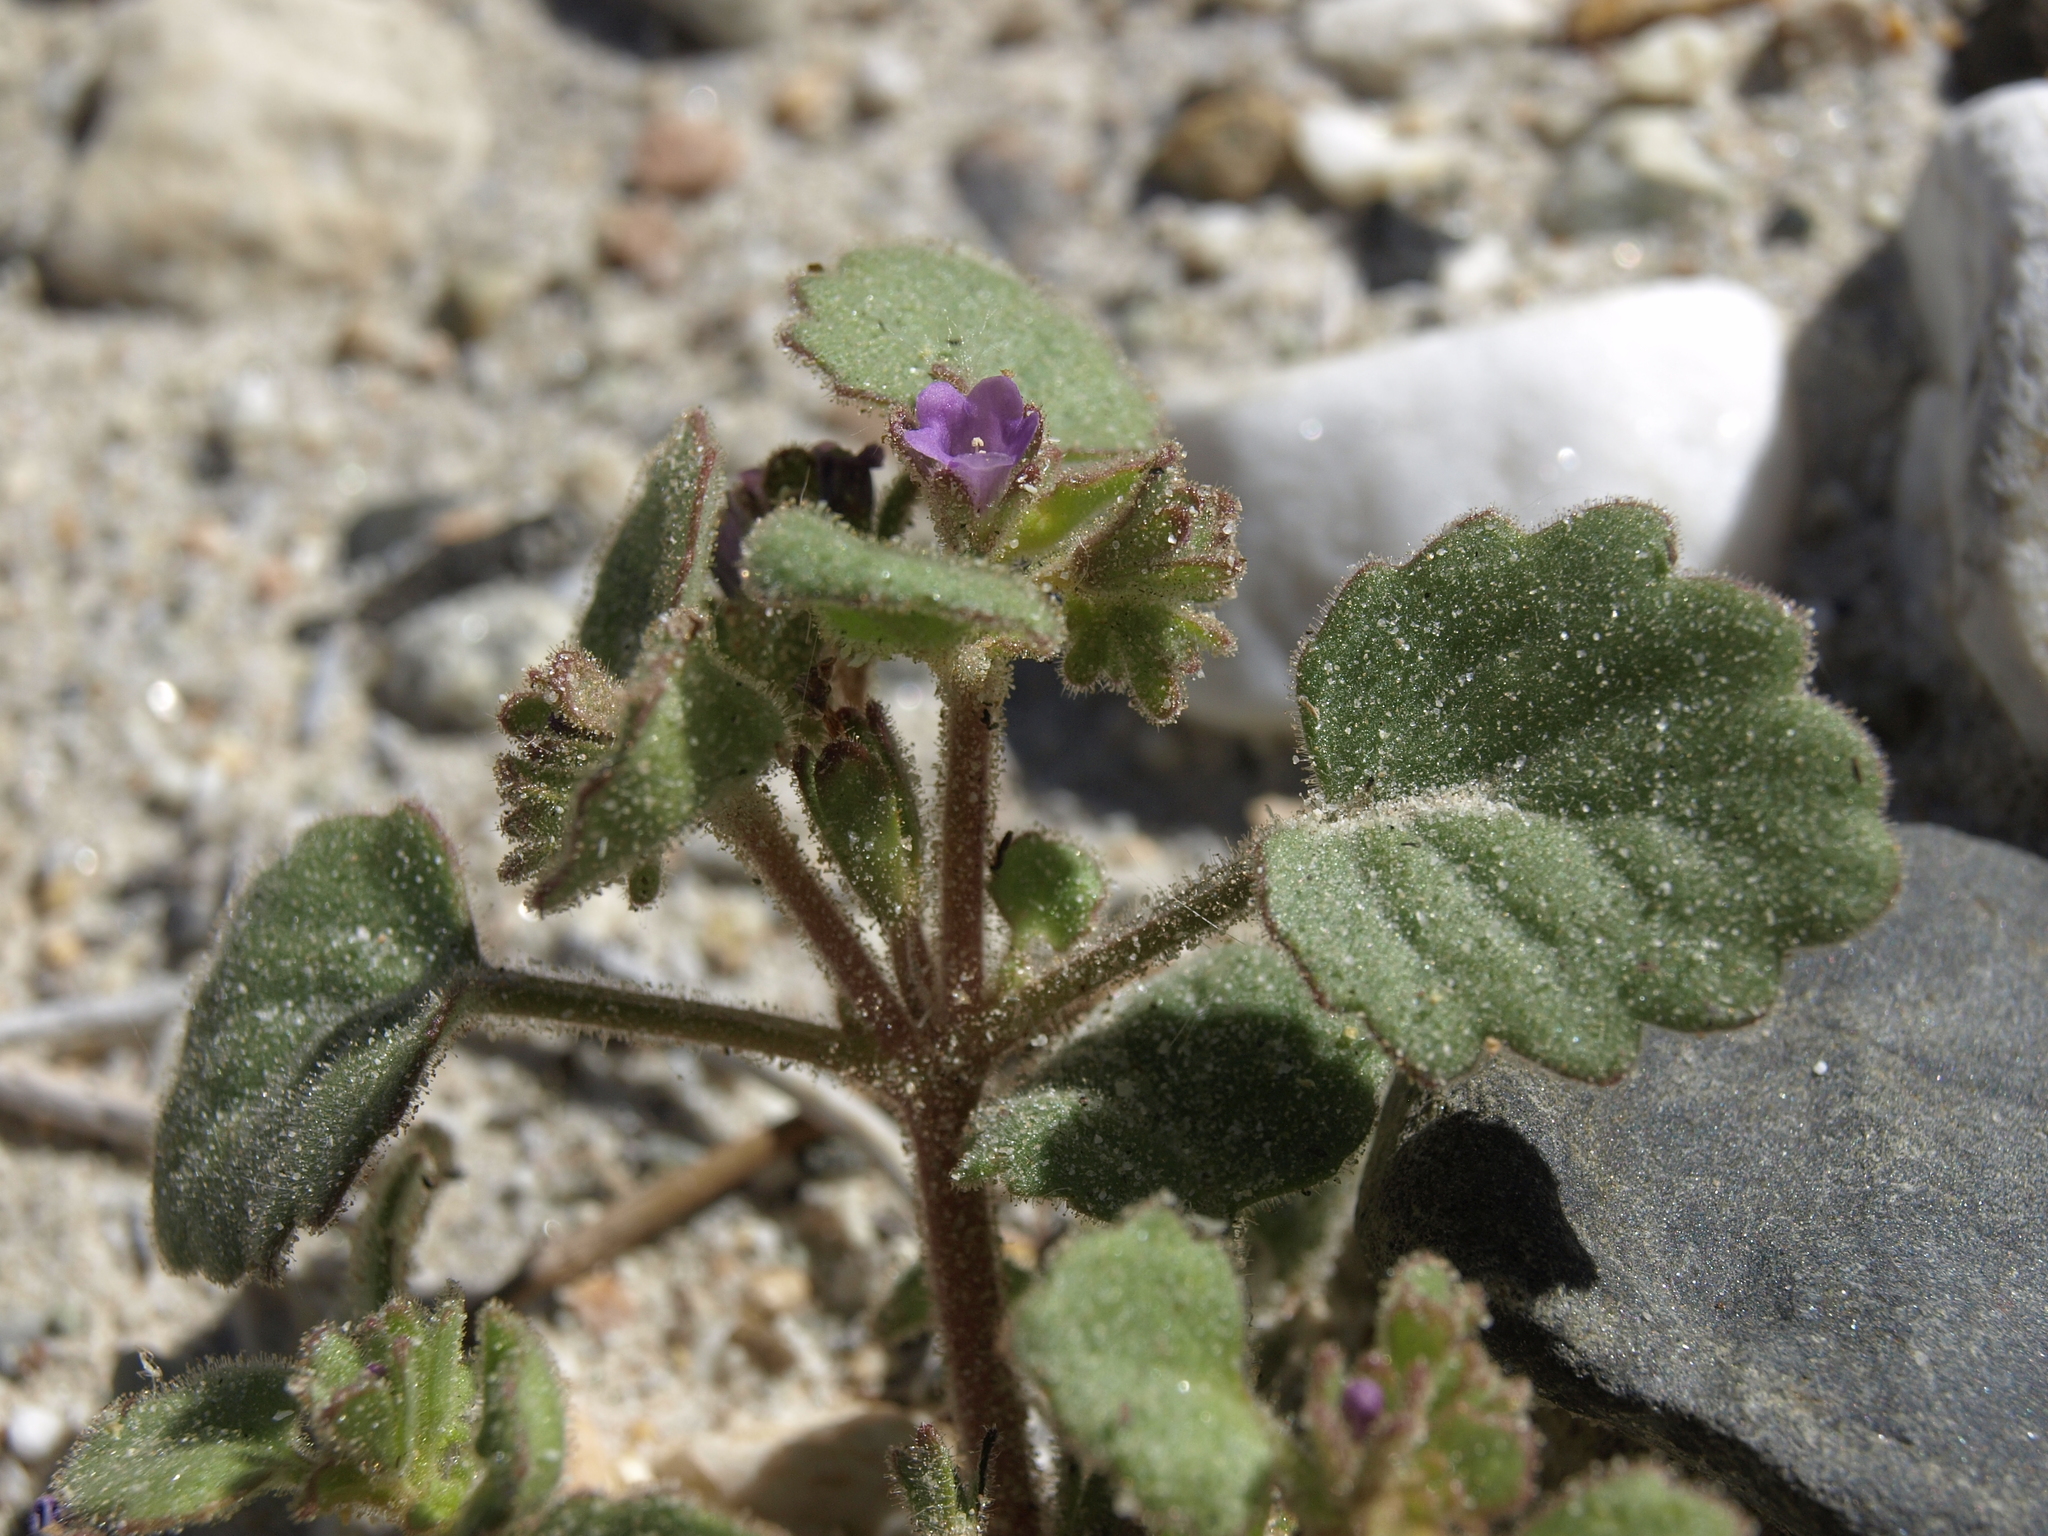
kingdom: Plantae
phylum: Tracheophyta
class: Magnoliopsida
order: Boraginales
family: Hydrophyllaceae
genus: Phacelia
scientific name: Phacelia peirsoniana
